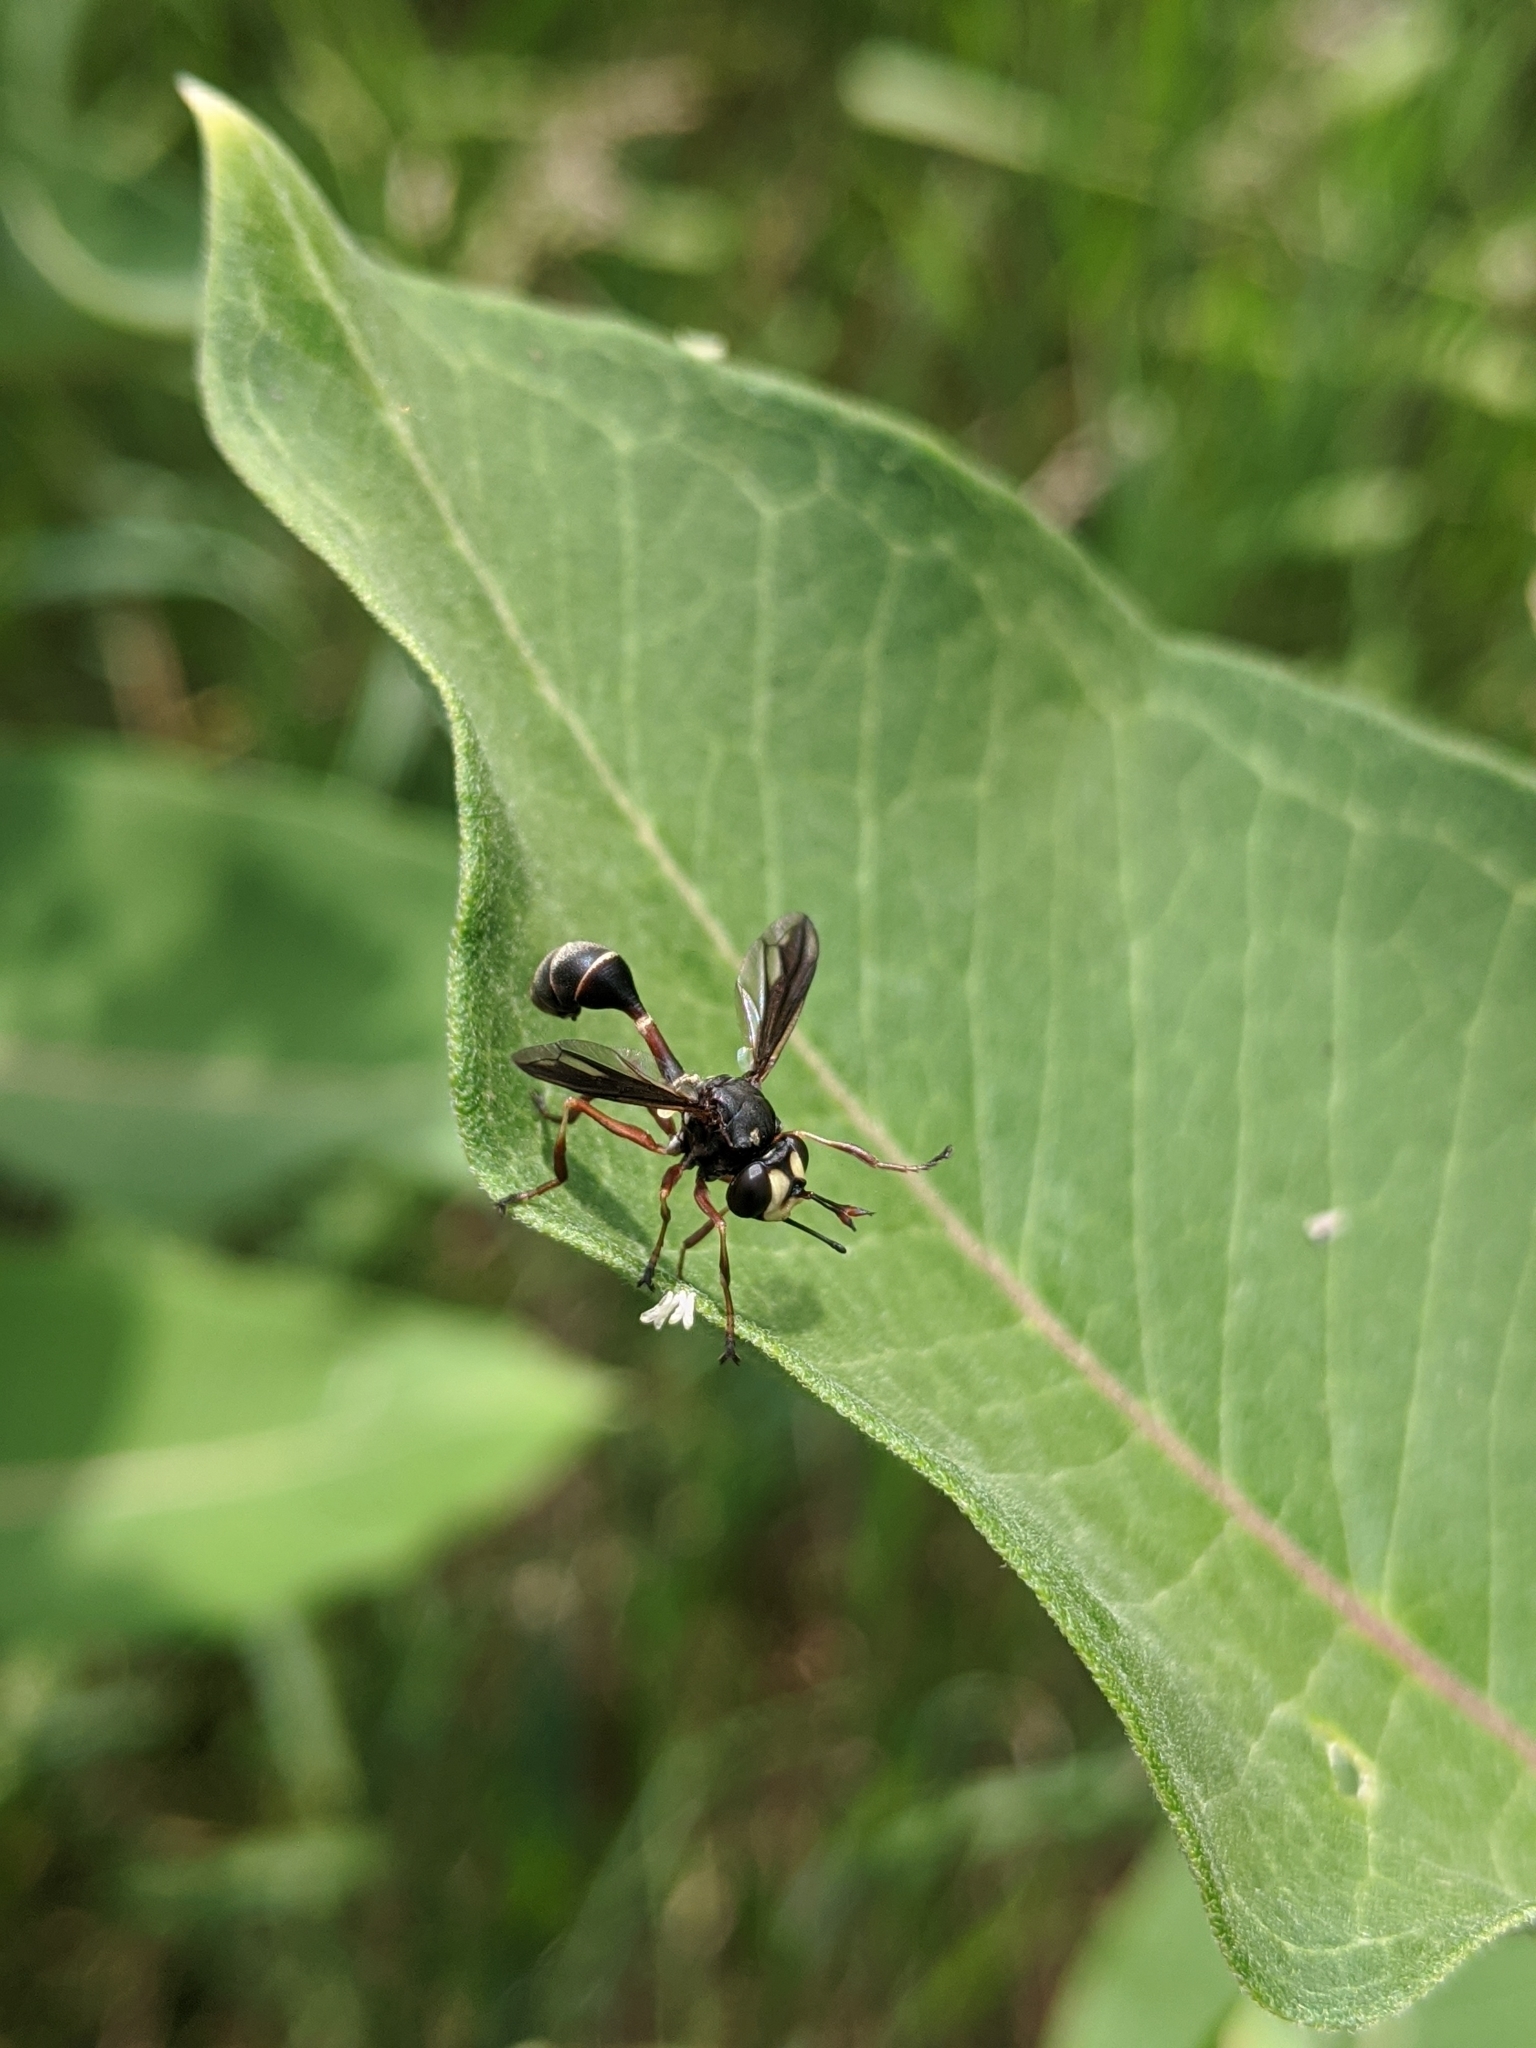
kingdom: Animalia
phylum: Arthropoda
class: Insecta
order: Diptera
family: Conopidae
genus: Physocephala
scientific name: Physocephala furcillata
